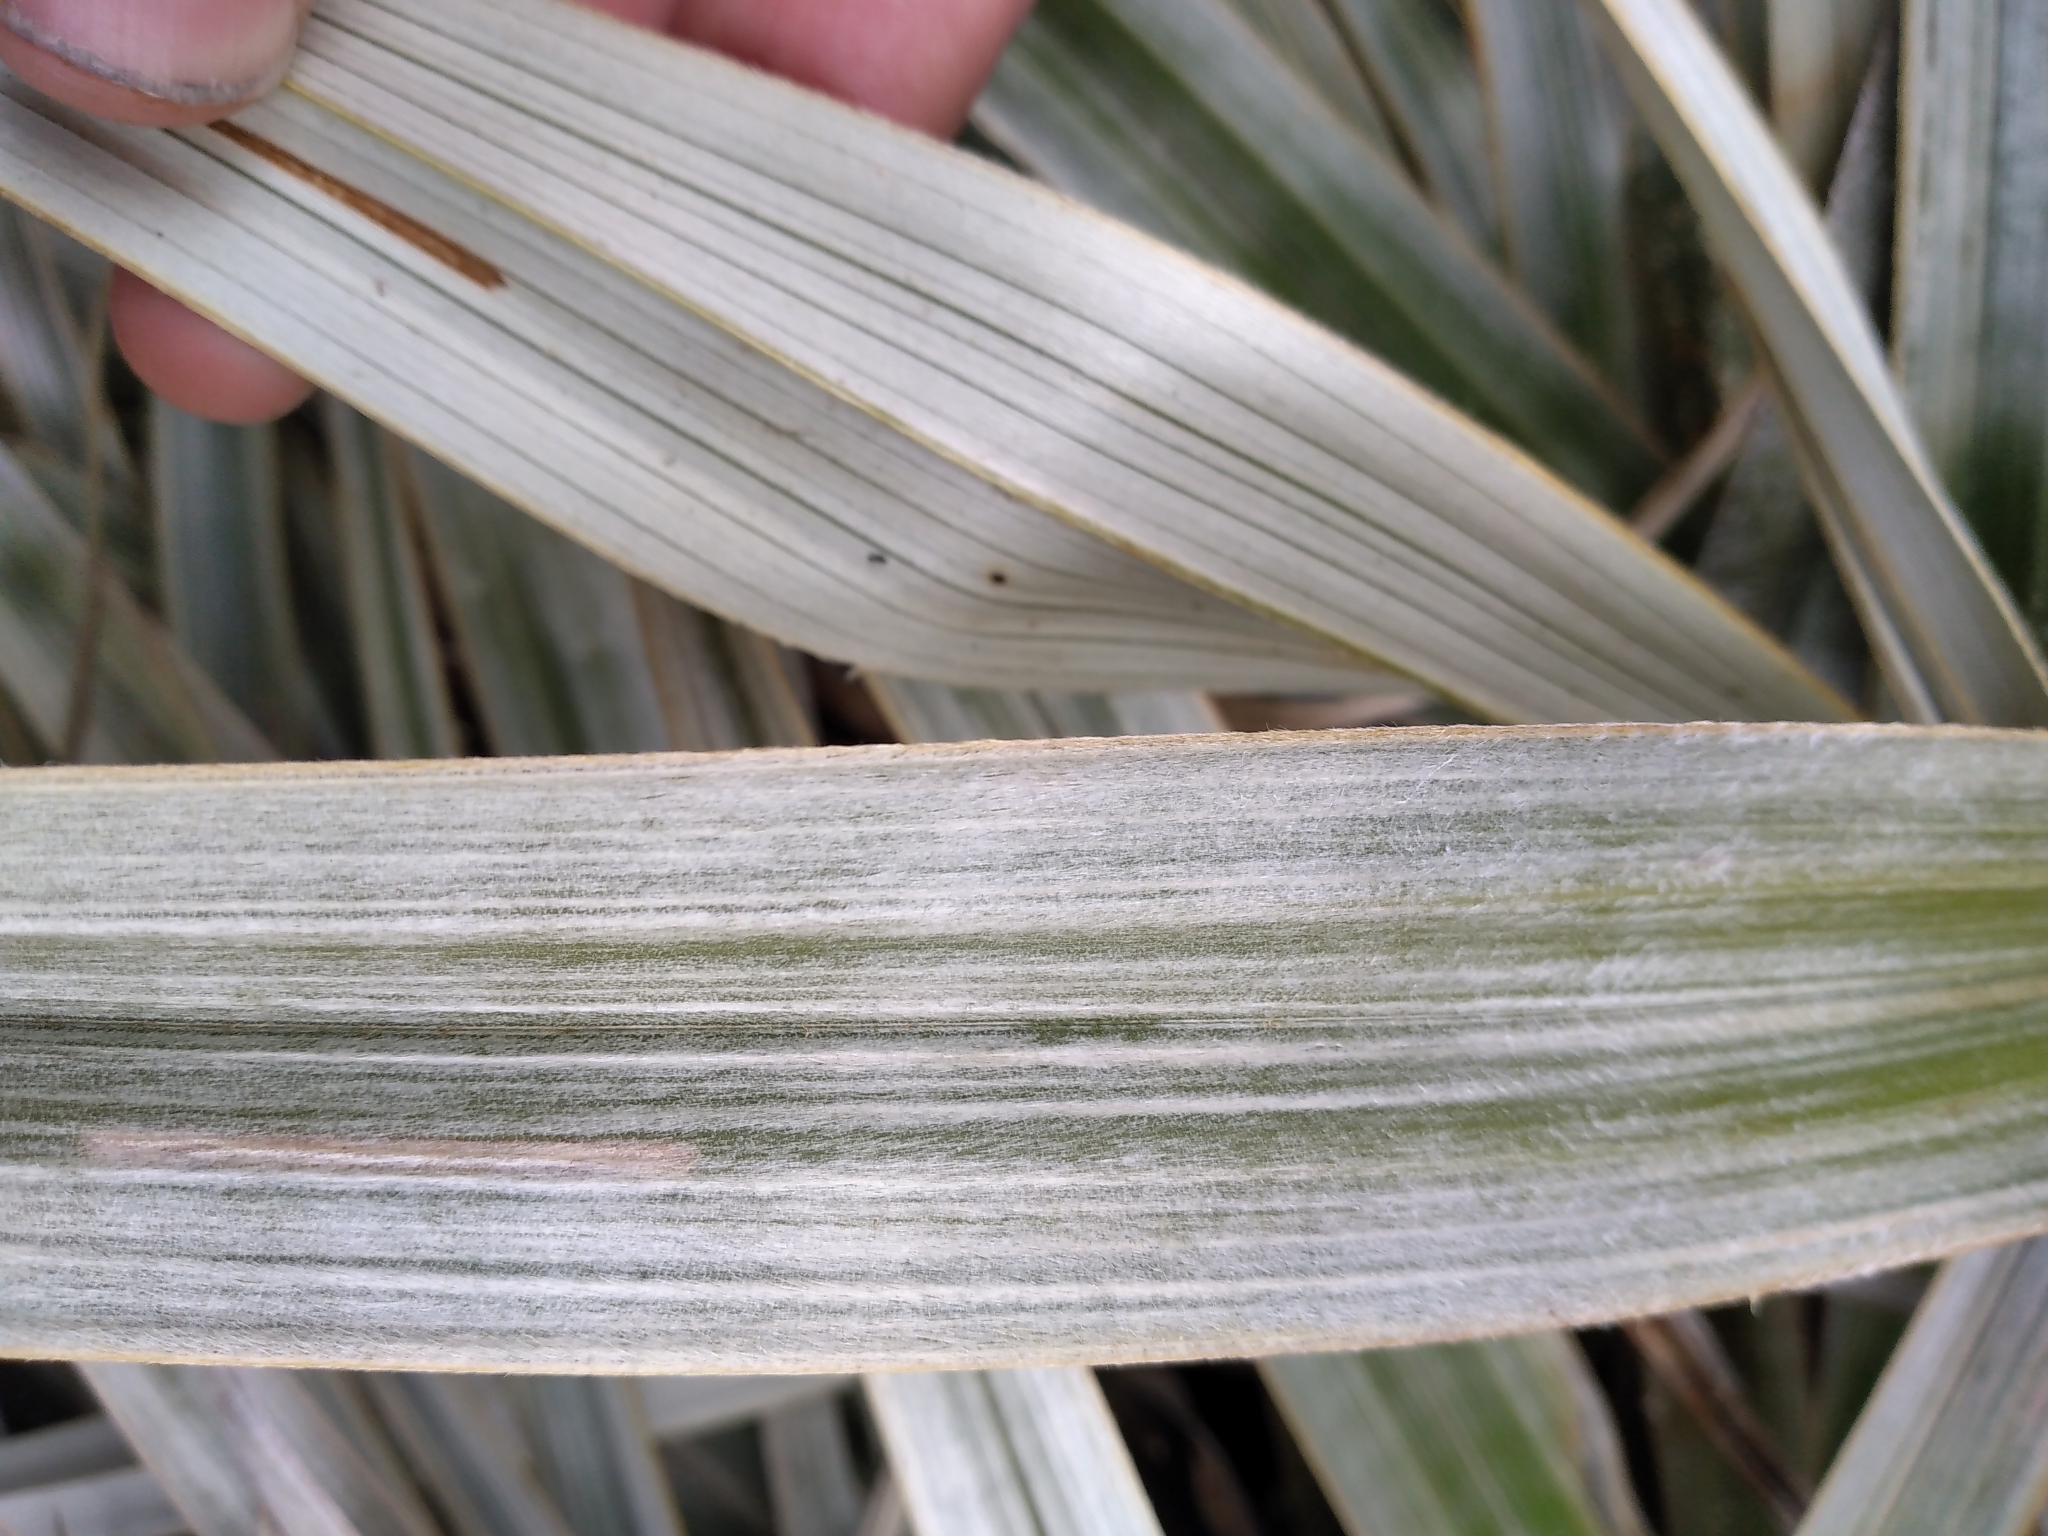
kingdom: Plantae
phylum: Tracheophyta
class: Liliopsida
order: Asparagales
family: Asteliaceae
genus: Astelia
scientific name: Astelia nervosa
